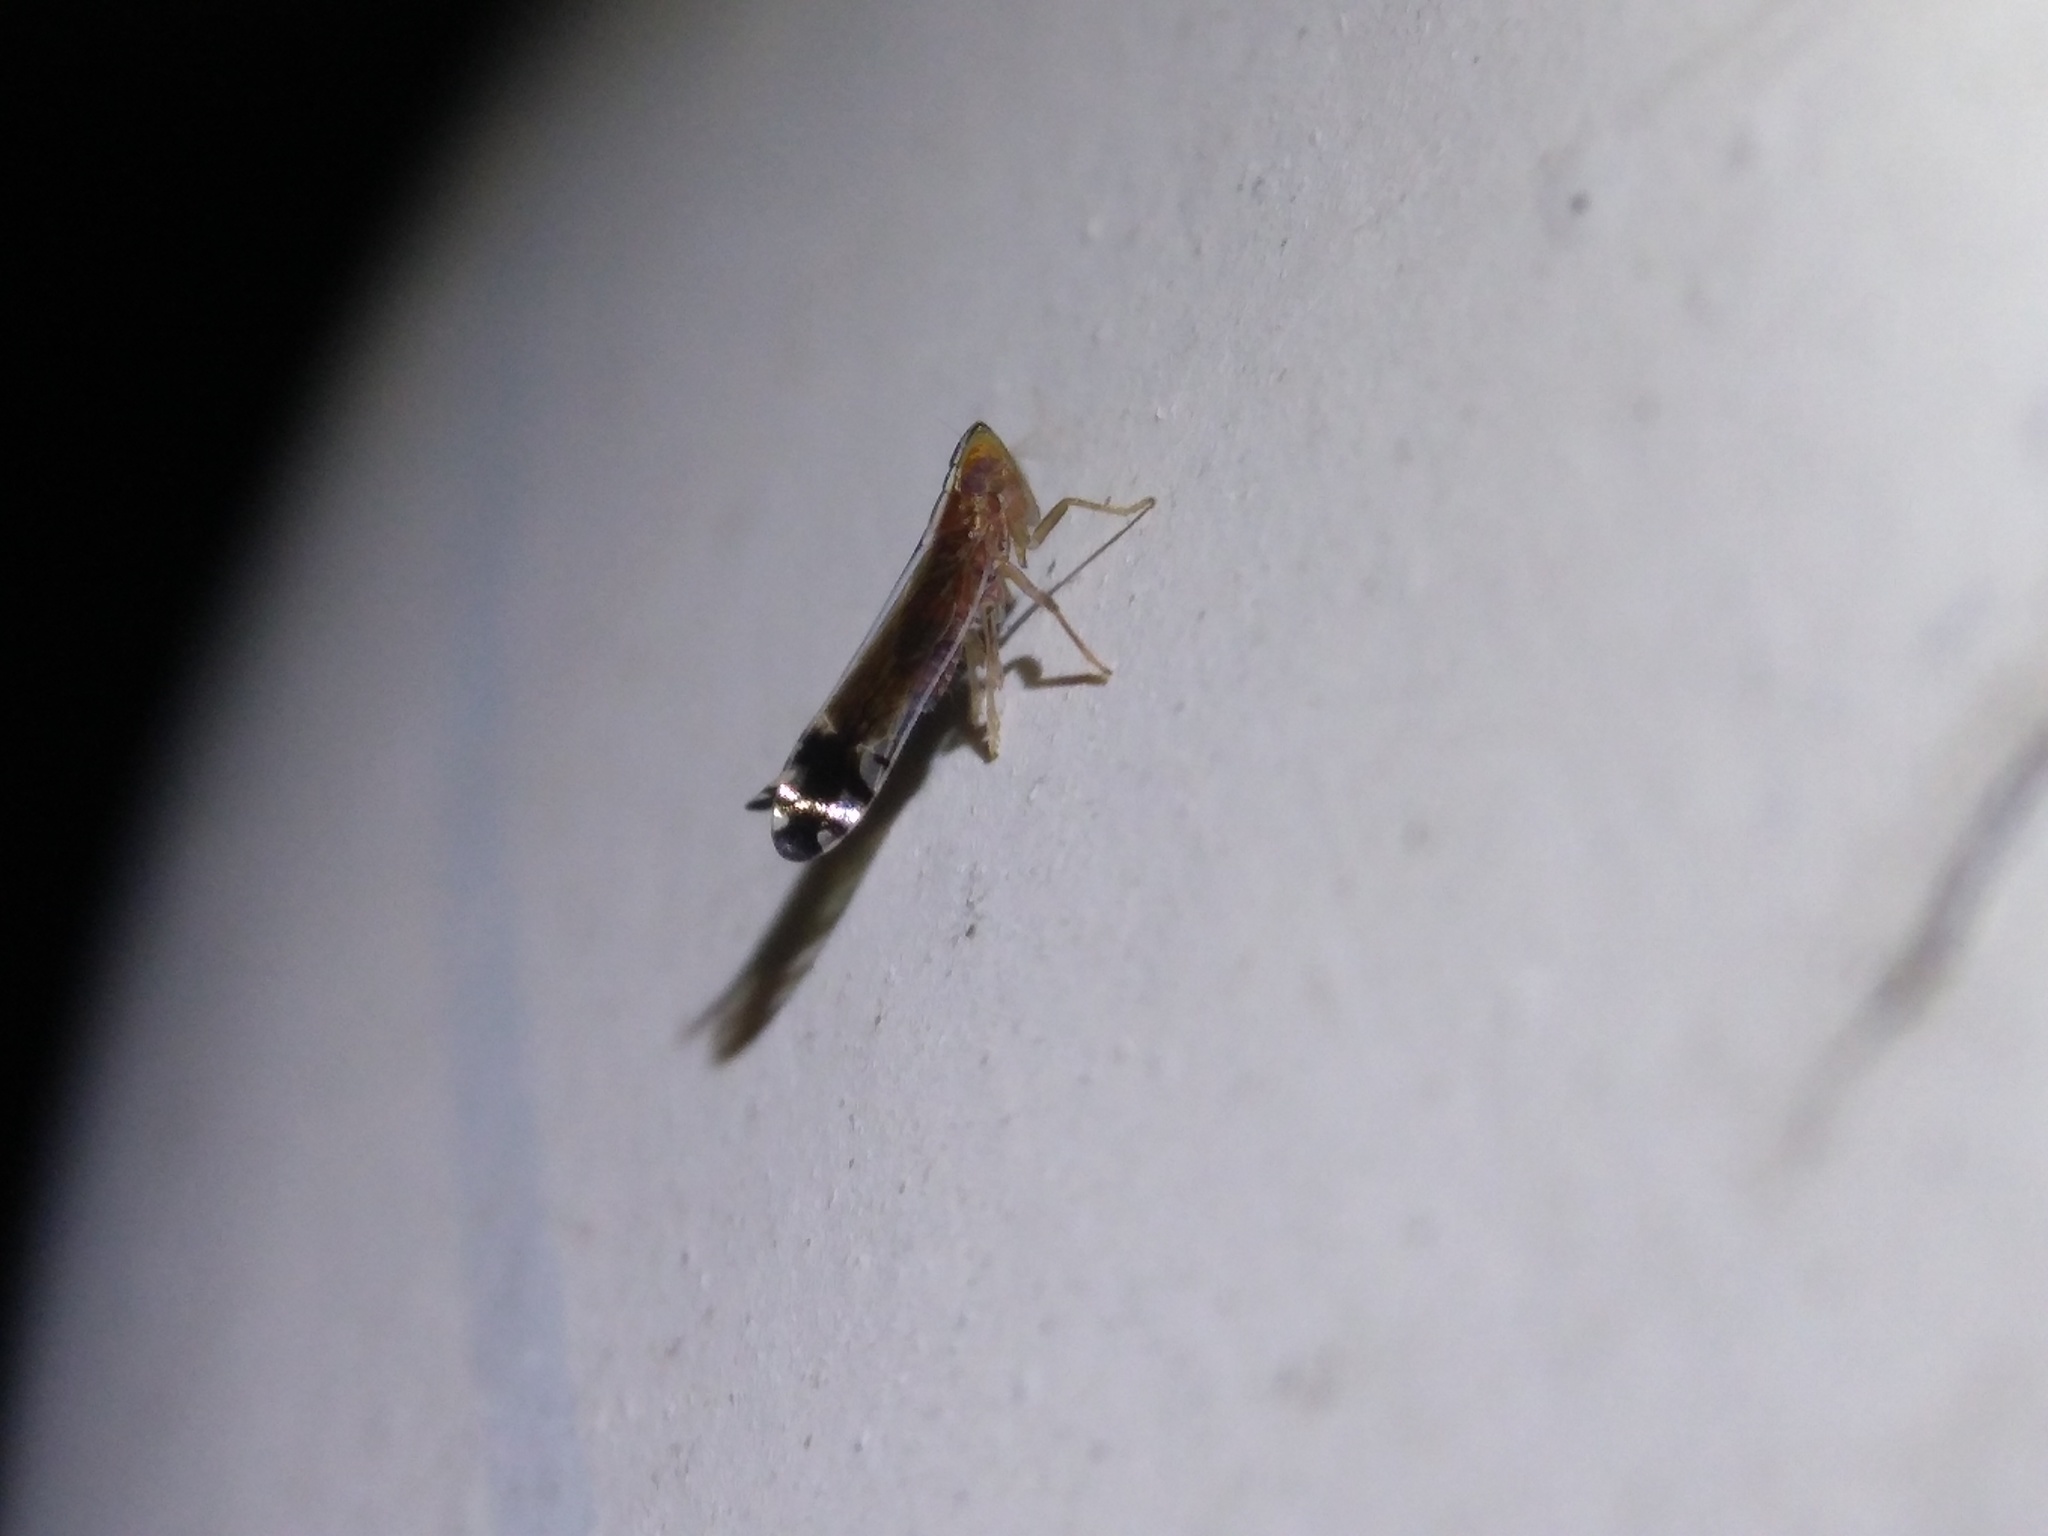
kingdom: Animalia
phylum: Arthropoda
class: Insecta
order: Hemiptera
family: Delphacidae
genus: Stenocranus
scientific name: Stenocranus acutus
